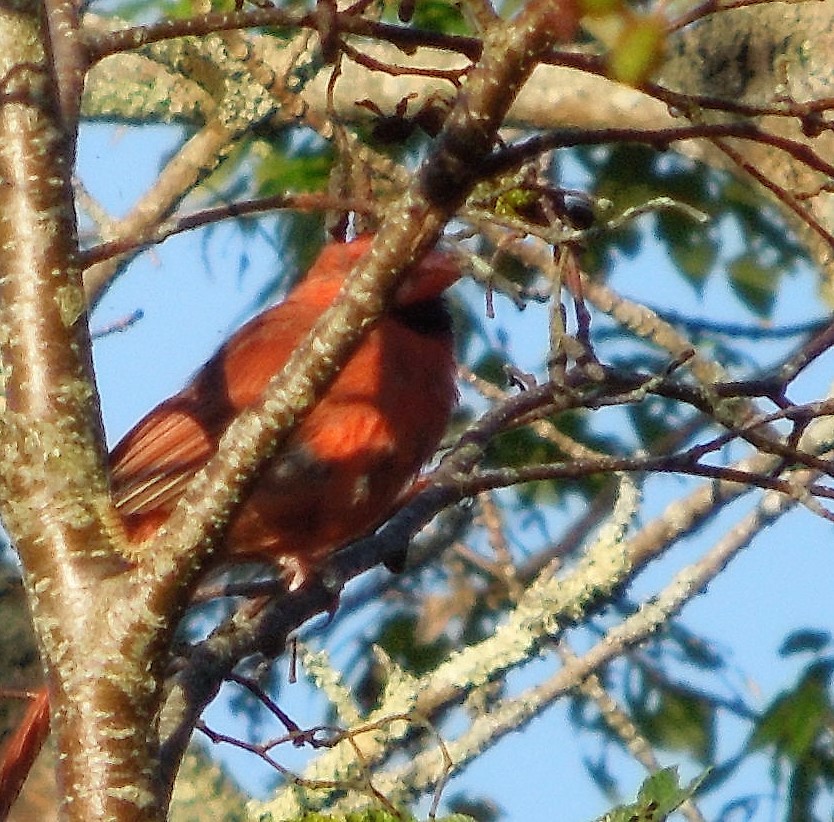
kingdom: Animalia
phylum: Chordata
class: Aves
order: Passeriformes
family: Cardinalidae
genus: Cardinalis
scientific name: Cardinalis cardinalis
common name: Northern cardinal
